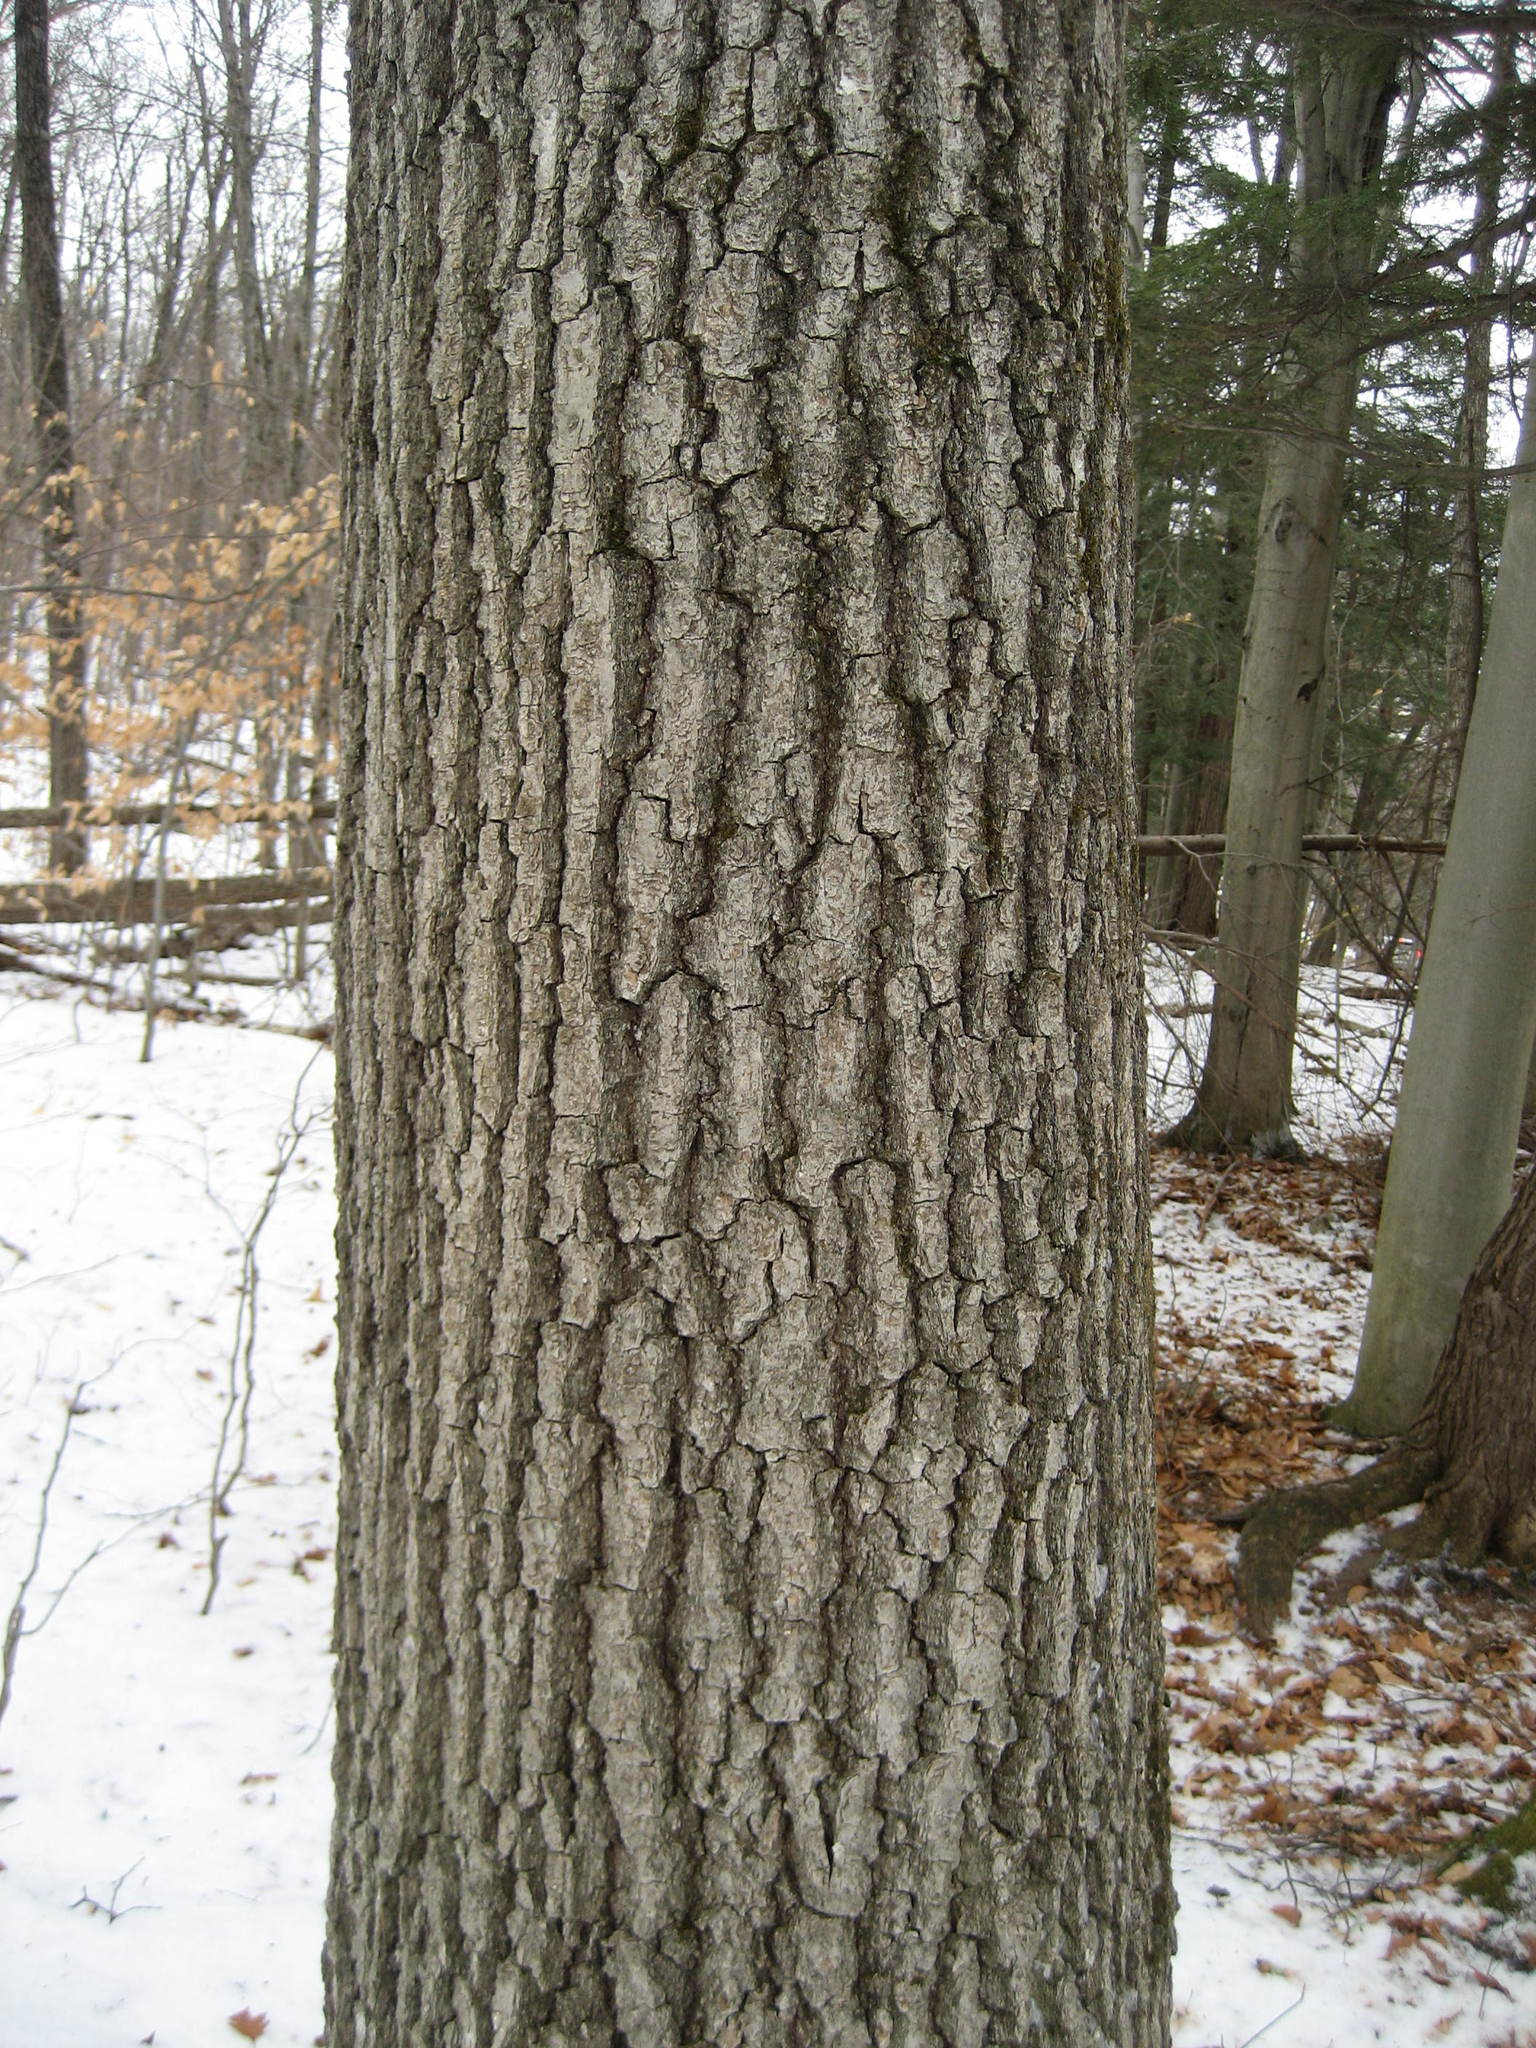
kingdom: Plantae
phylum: Tracheophyta
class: Magnoliopsida
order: Fagales
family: Fagaceae
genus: Quercus
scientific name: Quercus rubra
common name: Red oak
